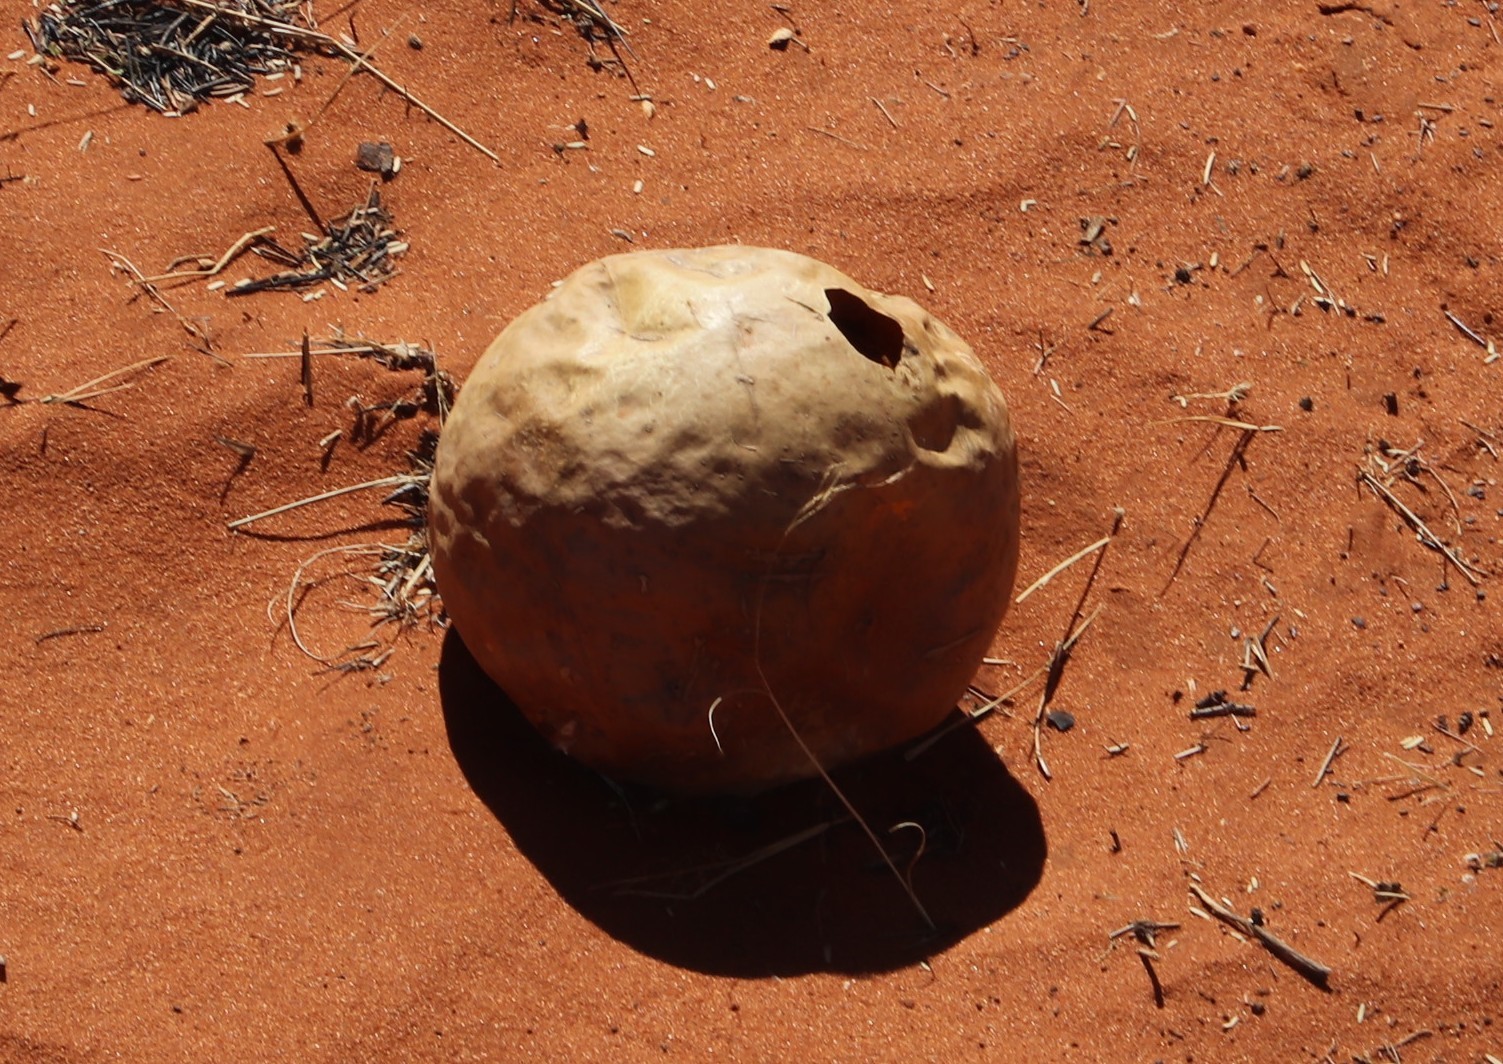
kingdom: Plantae
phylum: Tracheophyta
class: Magnoliopsida
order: Cucurbitales
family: Cucurbitaceae
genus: Citrullus
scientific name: Citrullus amarus
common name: Fodder-melon
